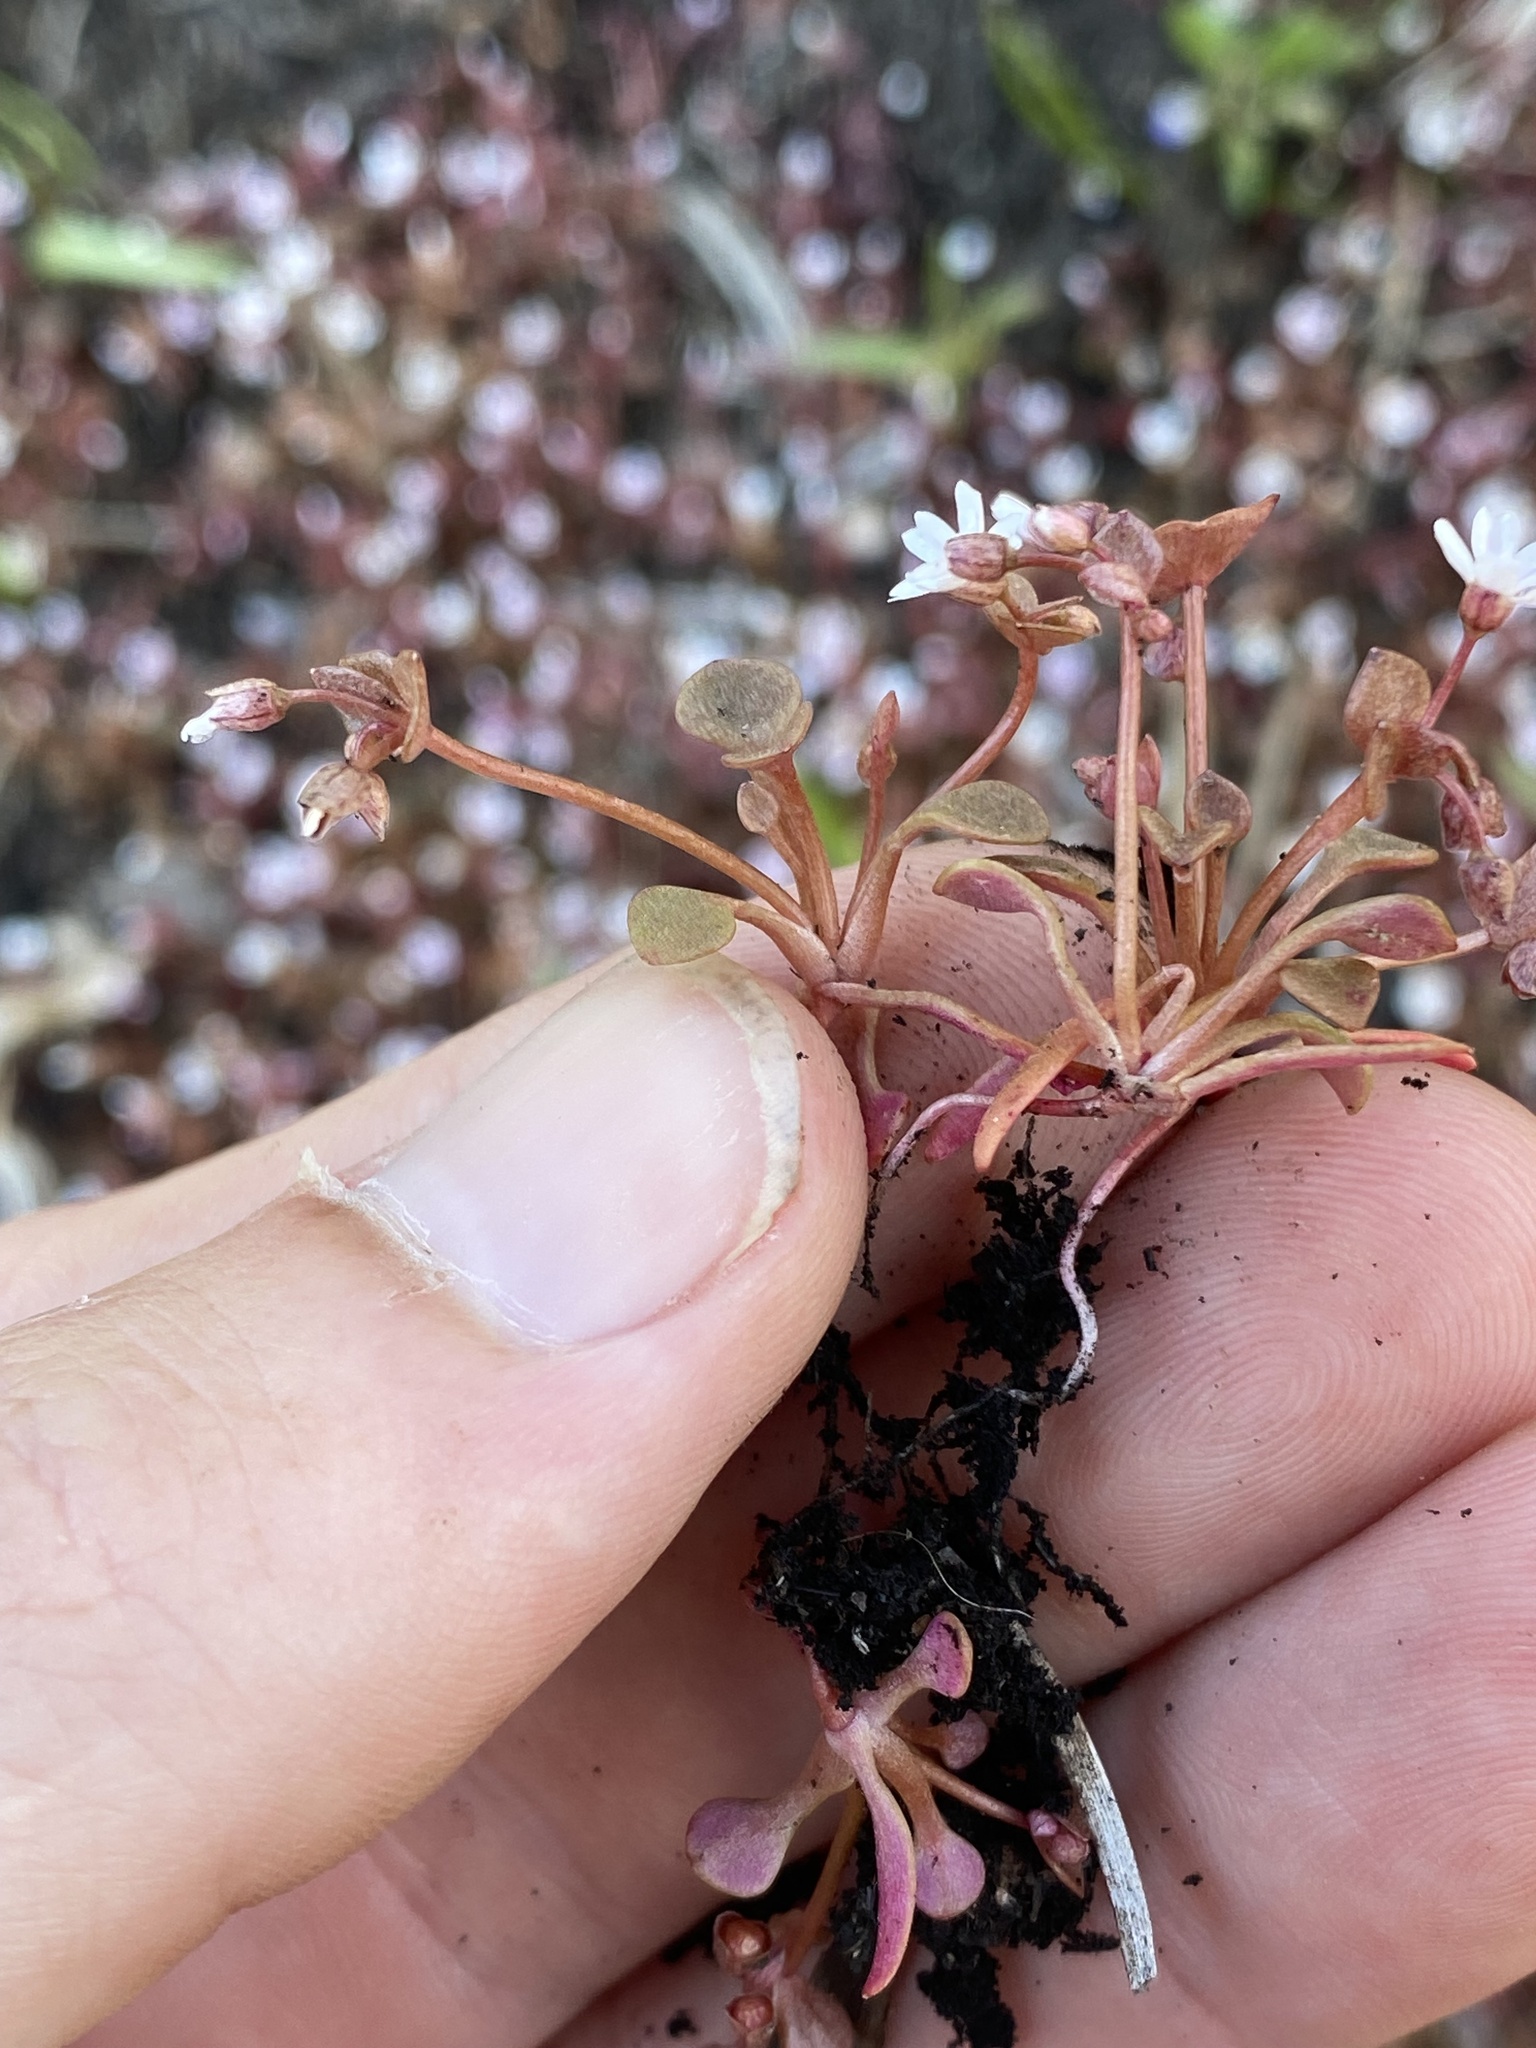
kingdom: Plantae
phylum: Tracheophyta
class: Magnoliopsida
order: Caryophyllales
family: Montiaceae
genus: Claytonia
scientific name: Claytonia rubra
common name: Erubescent miner's-lettuce
